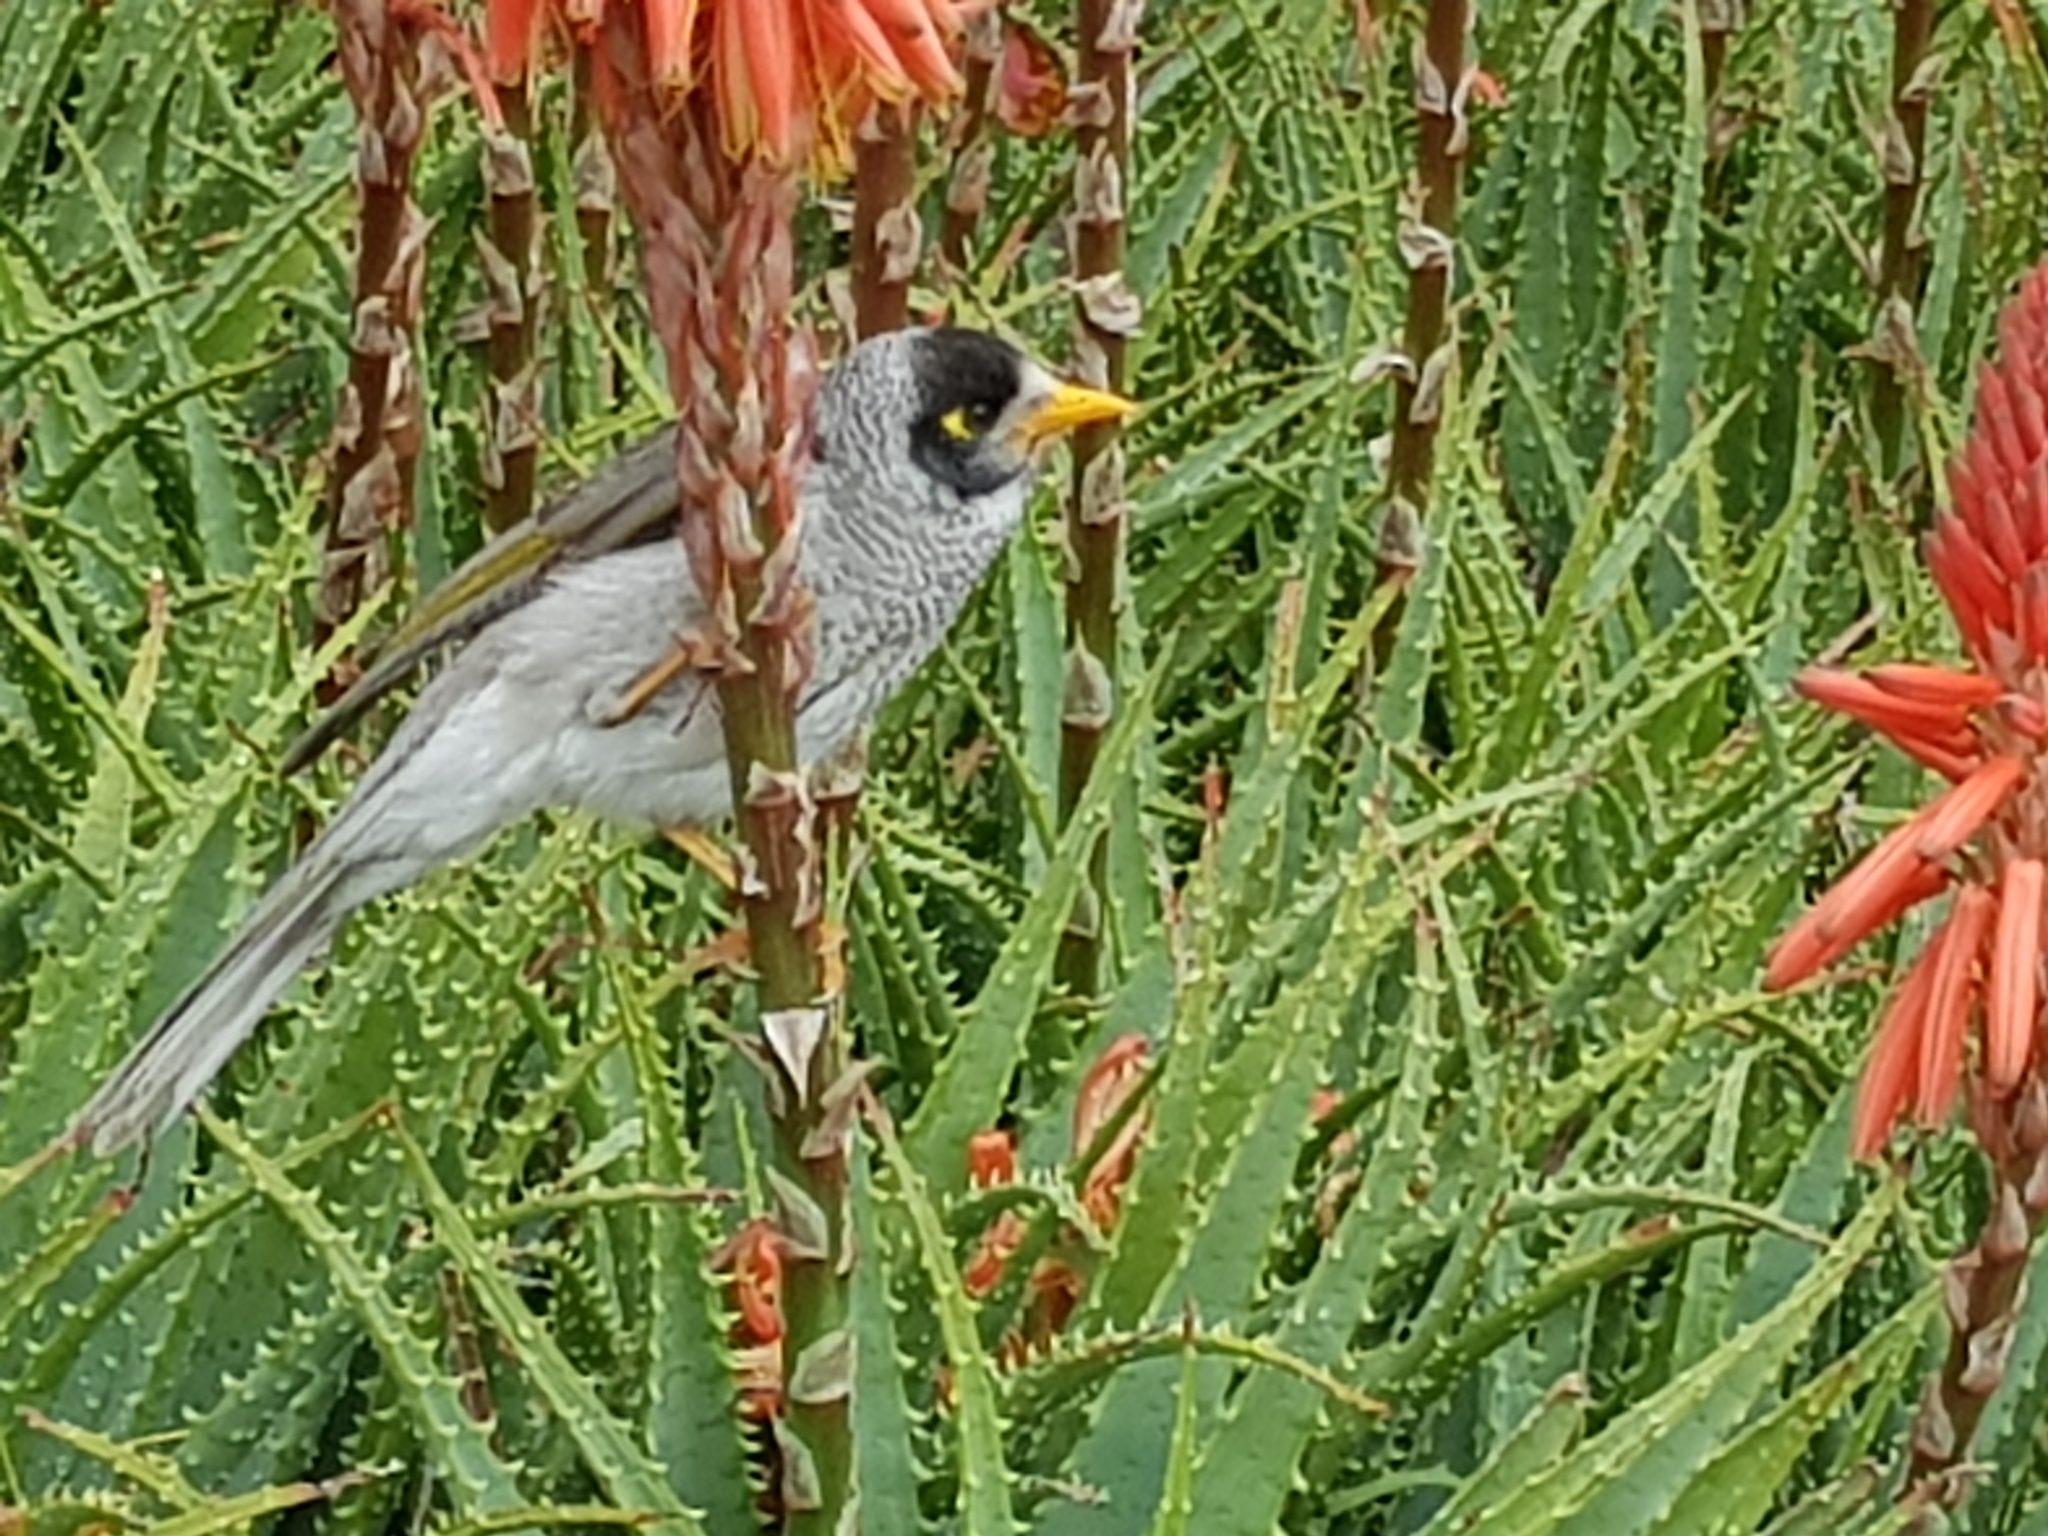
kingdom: Animalia
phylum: Chordata
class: Aves
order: Passeriformes
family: Meliphagidae
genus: Manorina
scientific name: Manorina melanocephala
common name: Noisy miner
